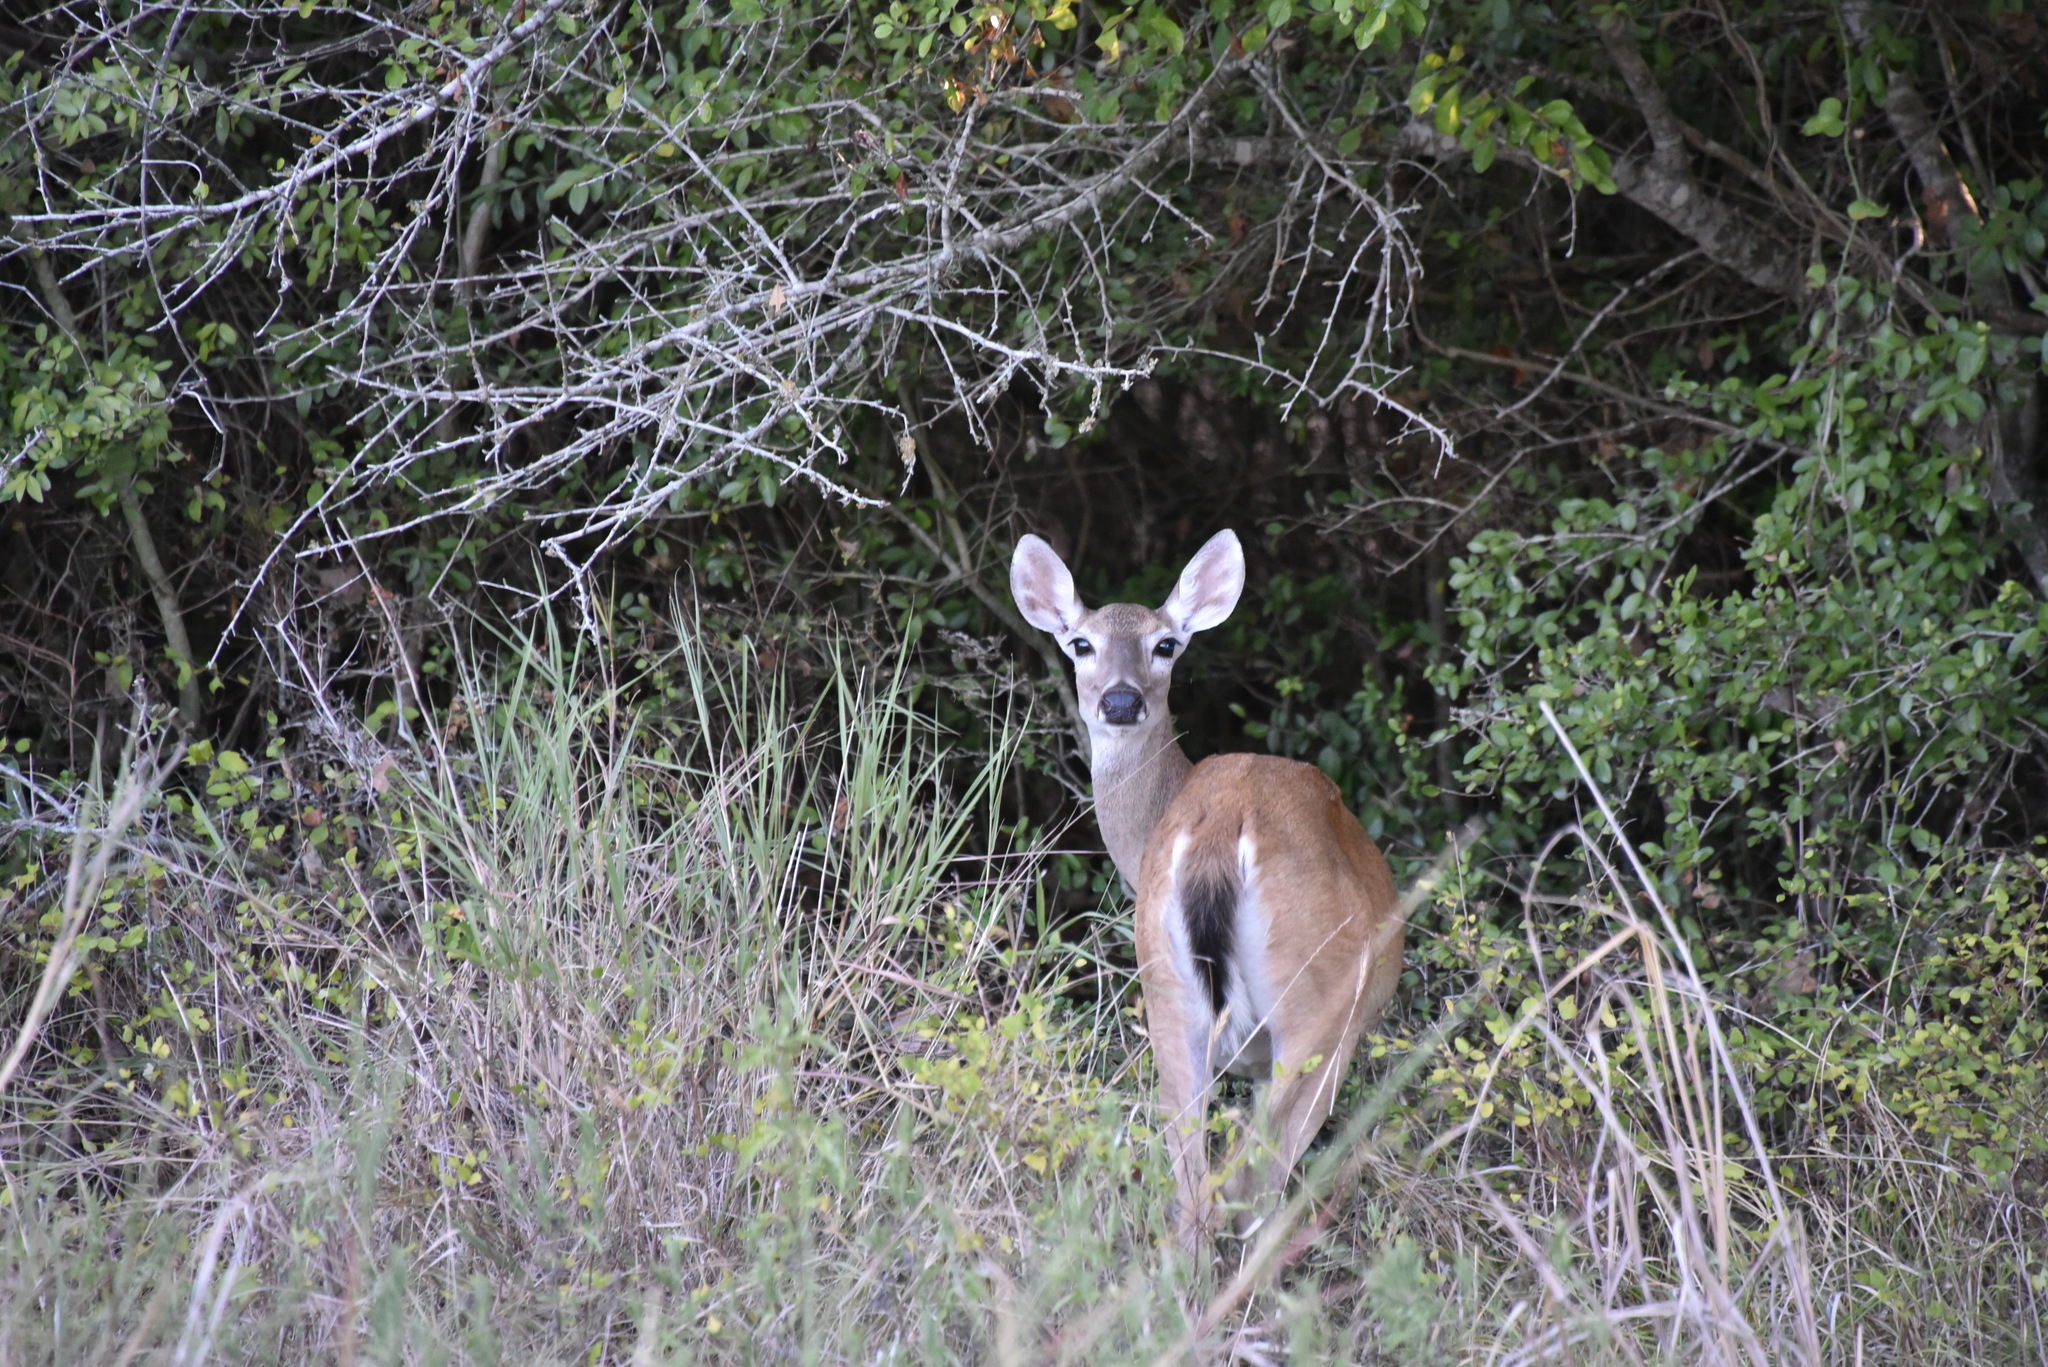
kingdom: Animalia
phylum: Chordata
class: Mammalia
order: Artiodactyla
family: Cervidae
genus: Odocoileus
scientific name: Odocoileus virginianus
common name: White-tailed deer
